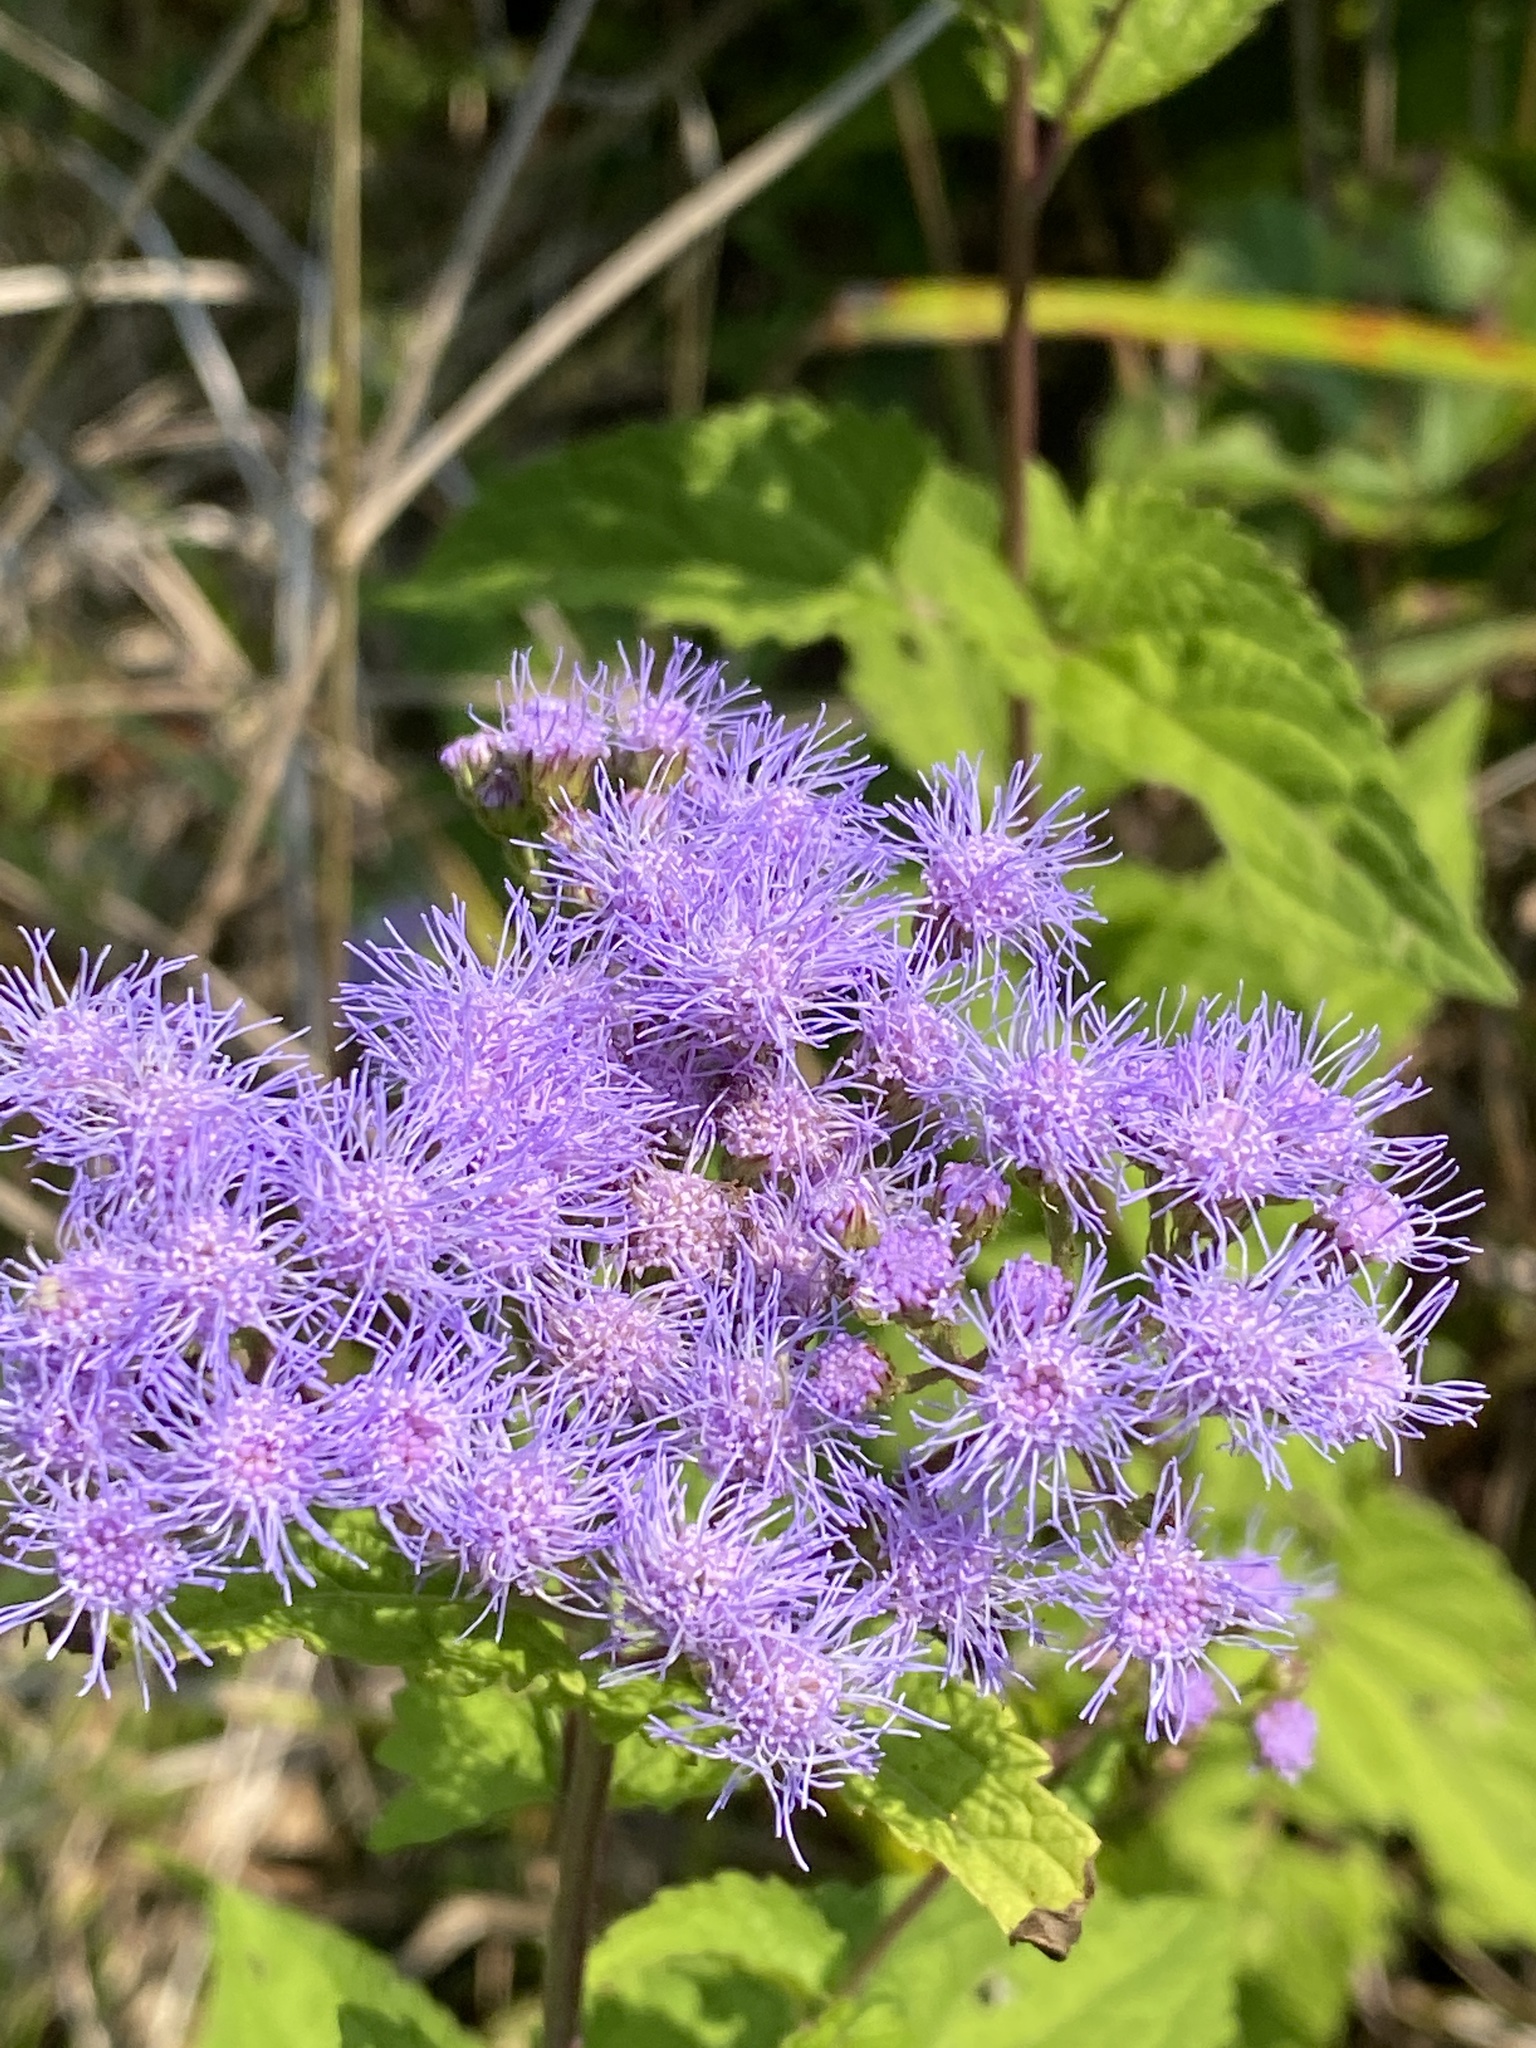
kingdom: Plantae
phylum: Tracheophyta
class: Magnoliopsida
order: Asterales
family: Asteraceae
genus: Conoclinium
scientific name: Conoclinium coelestinum
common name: Blue mistflower
